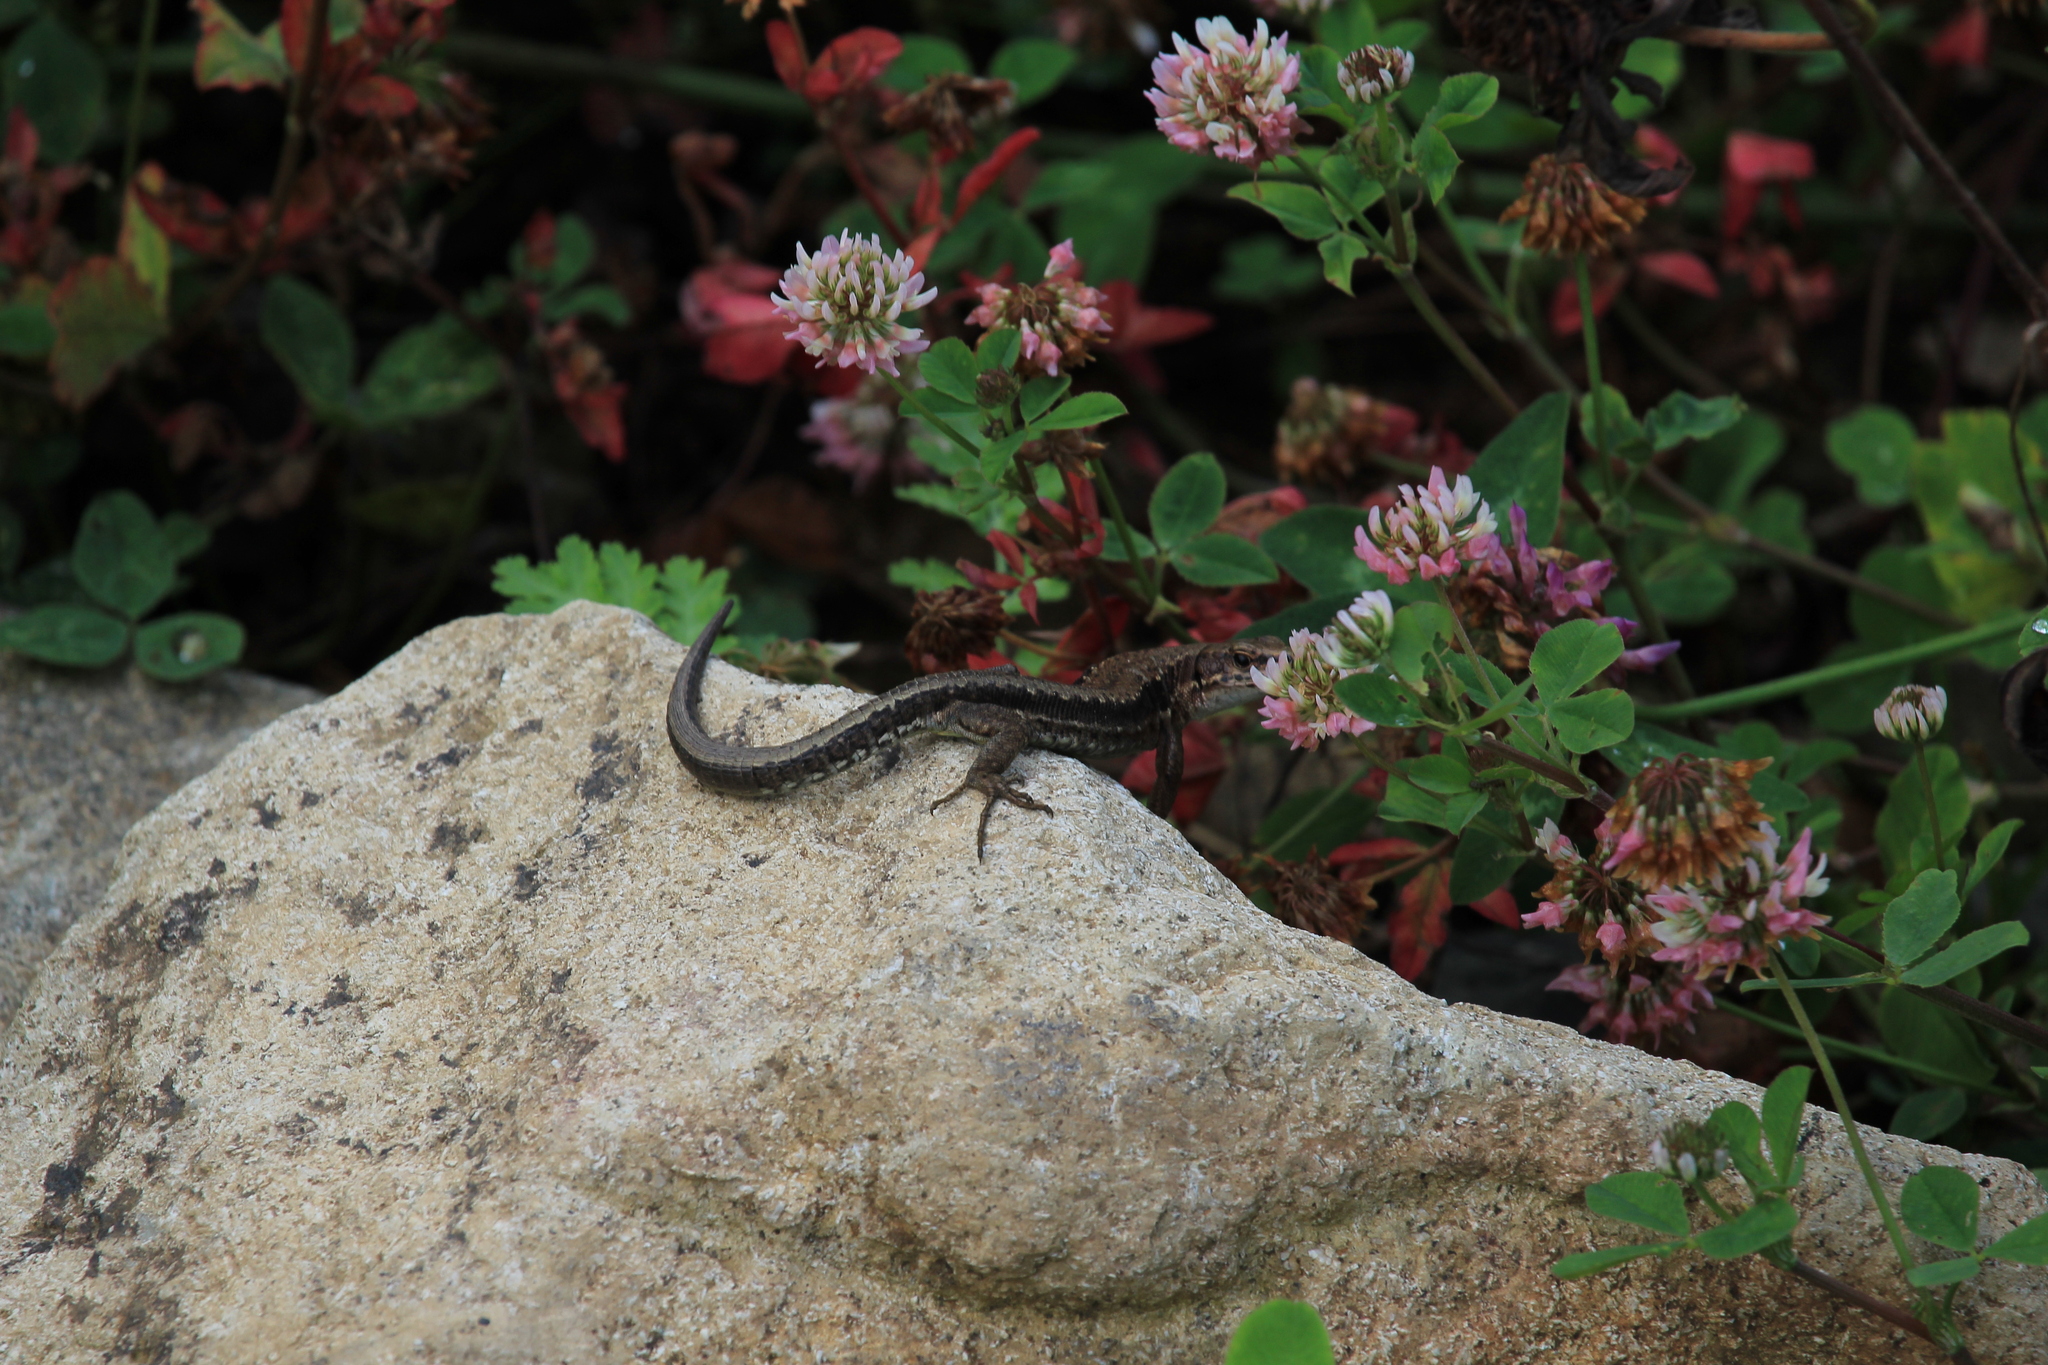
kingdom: Animalia
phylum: Chordata
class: Squamata
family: Lacertidae
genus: Darevskia
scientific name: Darevskia derjugini
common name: Derjugin's lizard
